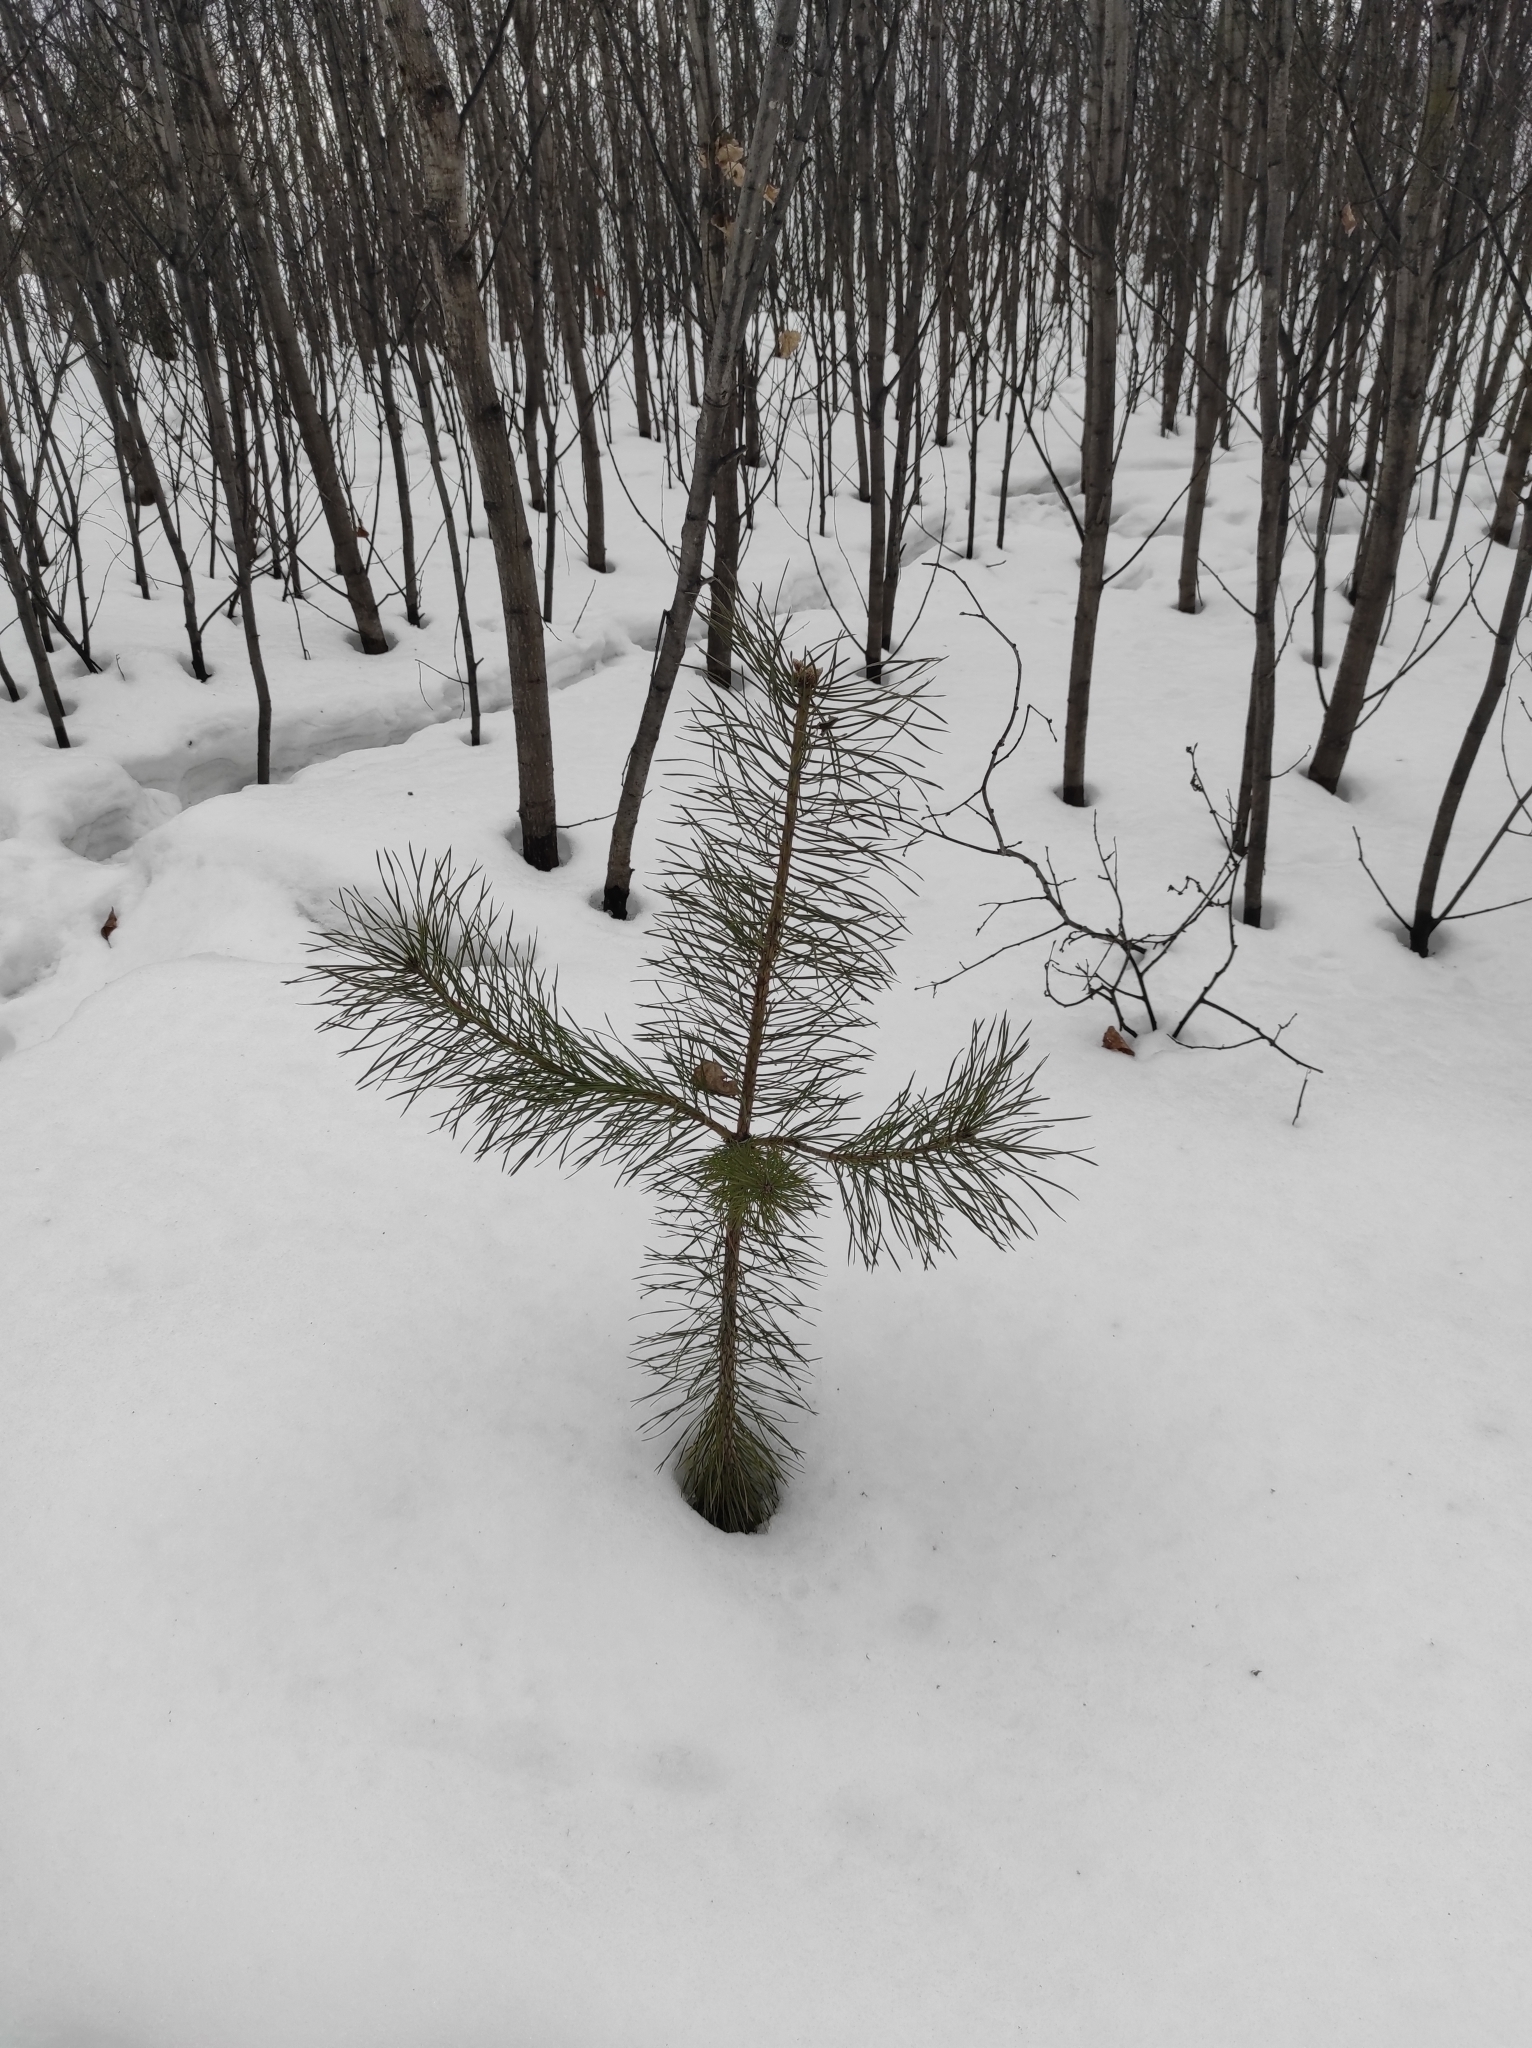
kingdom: Plantae
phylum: Tracheophyta
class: Pinopsida
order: Pinales
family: Pinaceae
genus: Pinus
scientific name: Pinus sylvestris
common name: Scots pine
